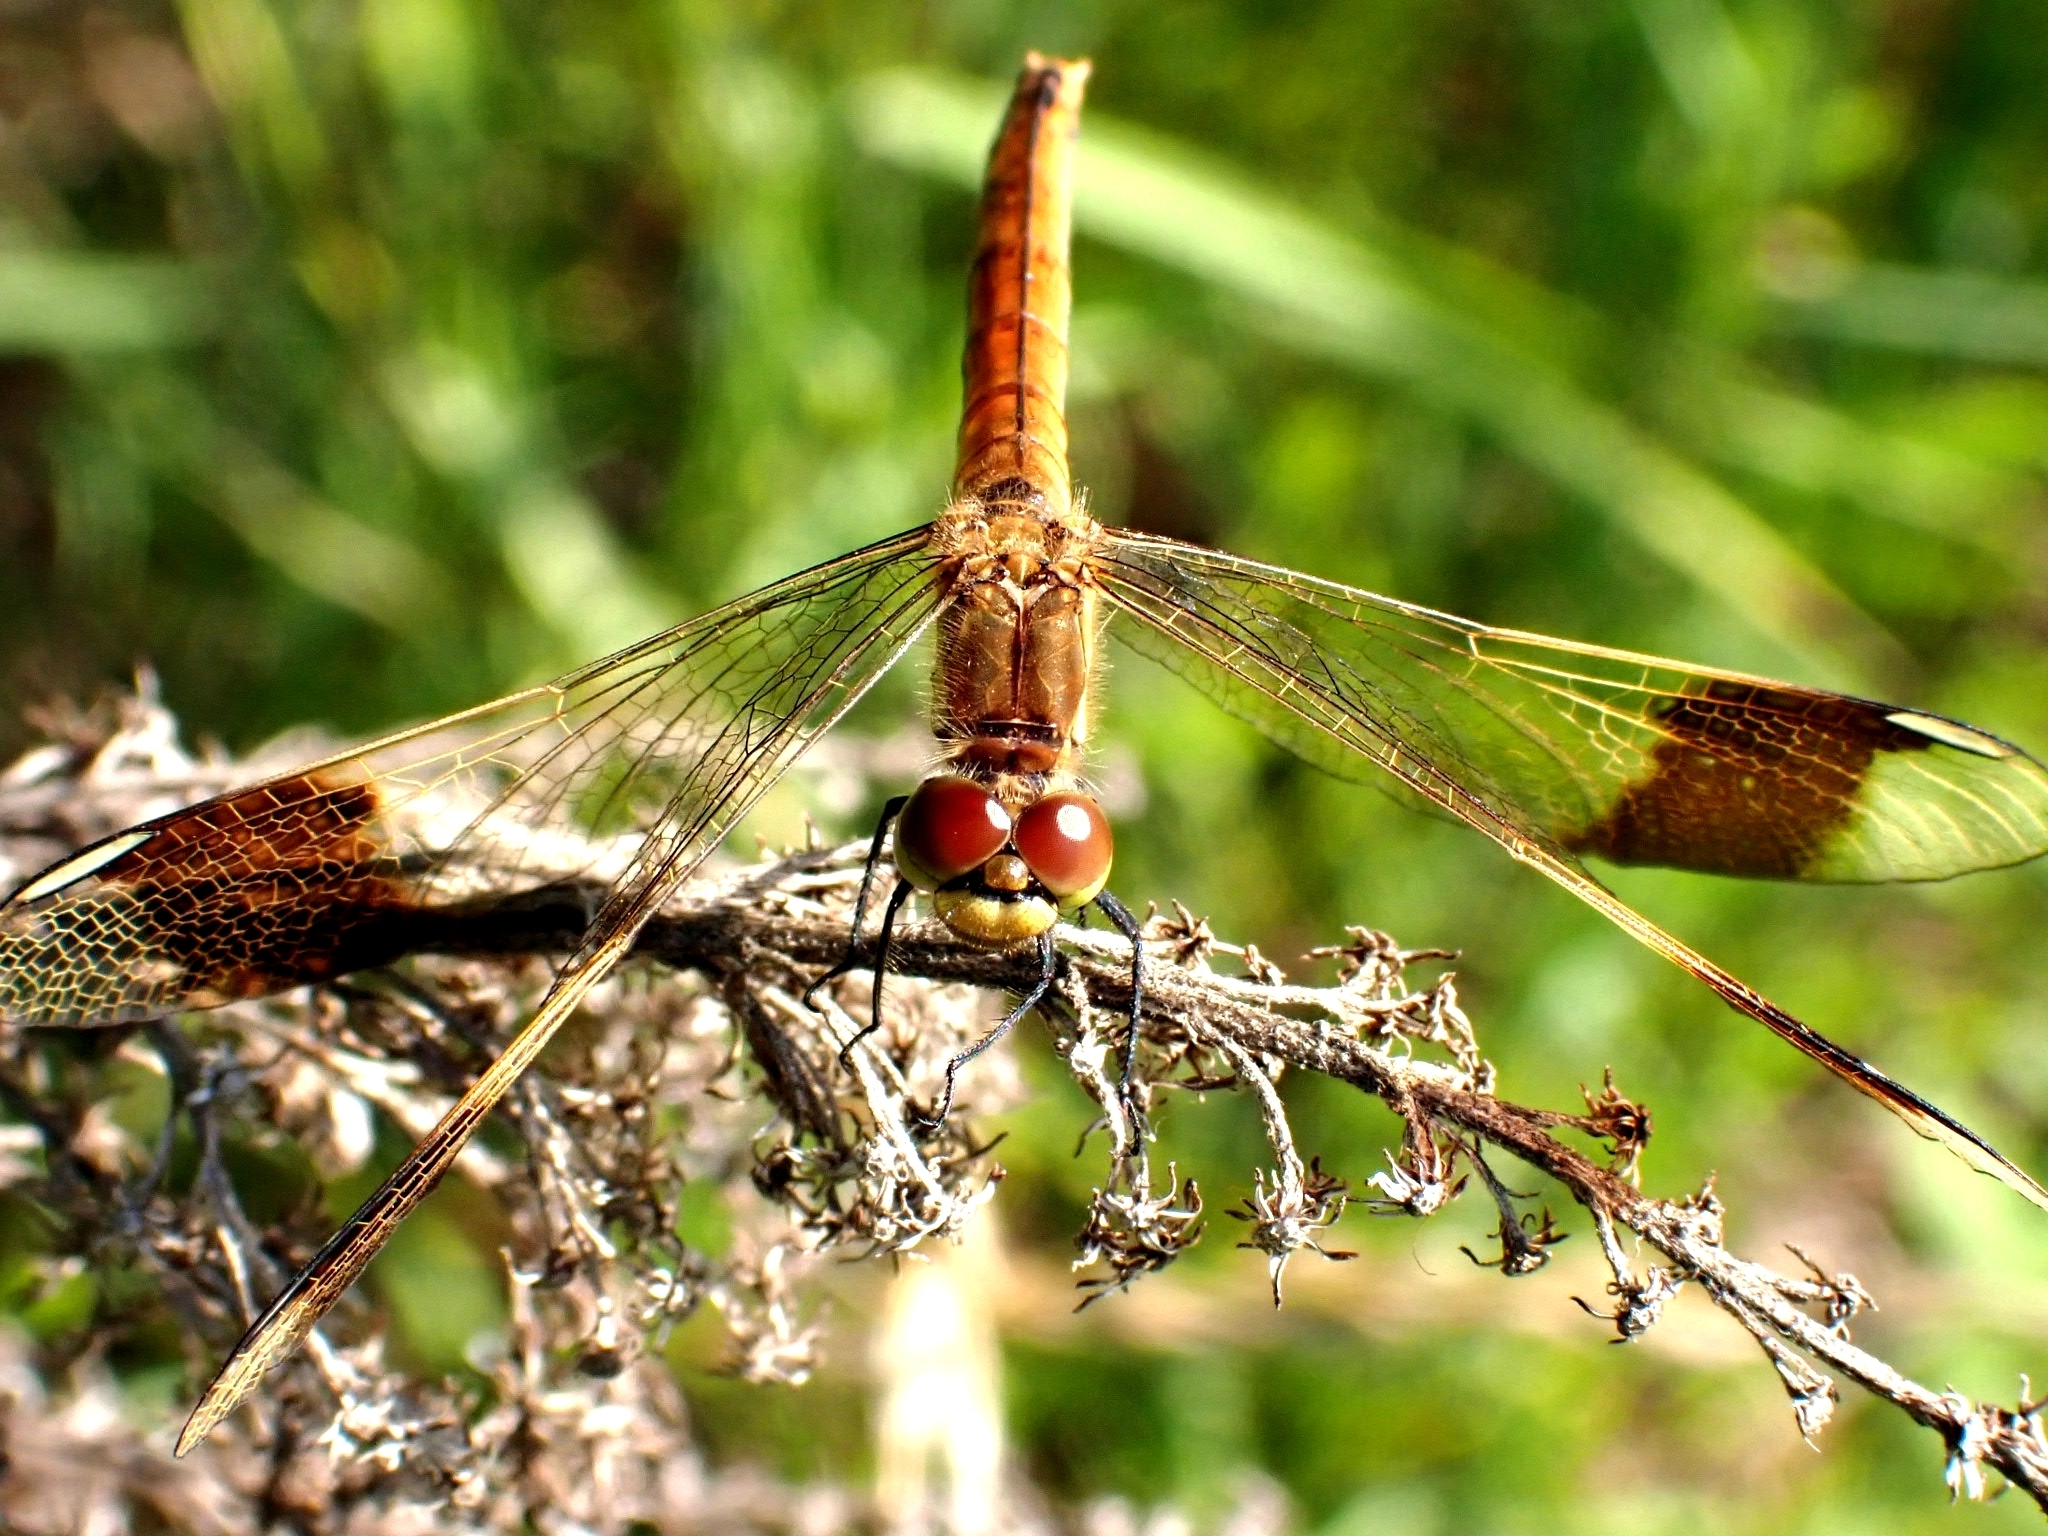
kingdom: Animalia
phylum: Arthropoda
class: Insecta
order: Odonata
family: Libellulidae
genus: Sympetrum
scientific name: Sympetrum pedemontanum
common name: Banded darter
